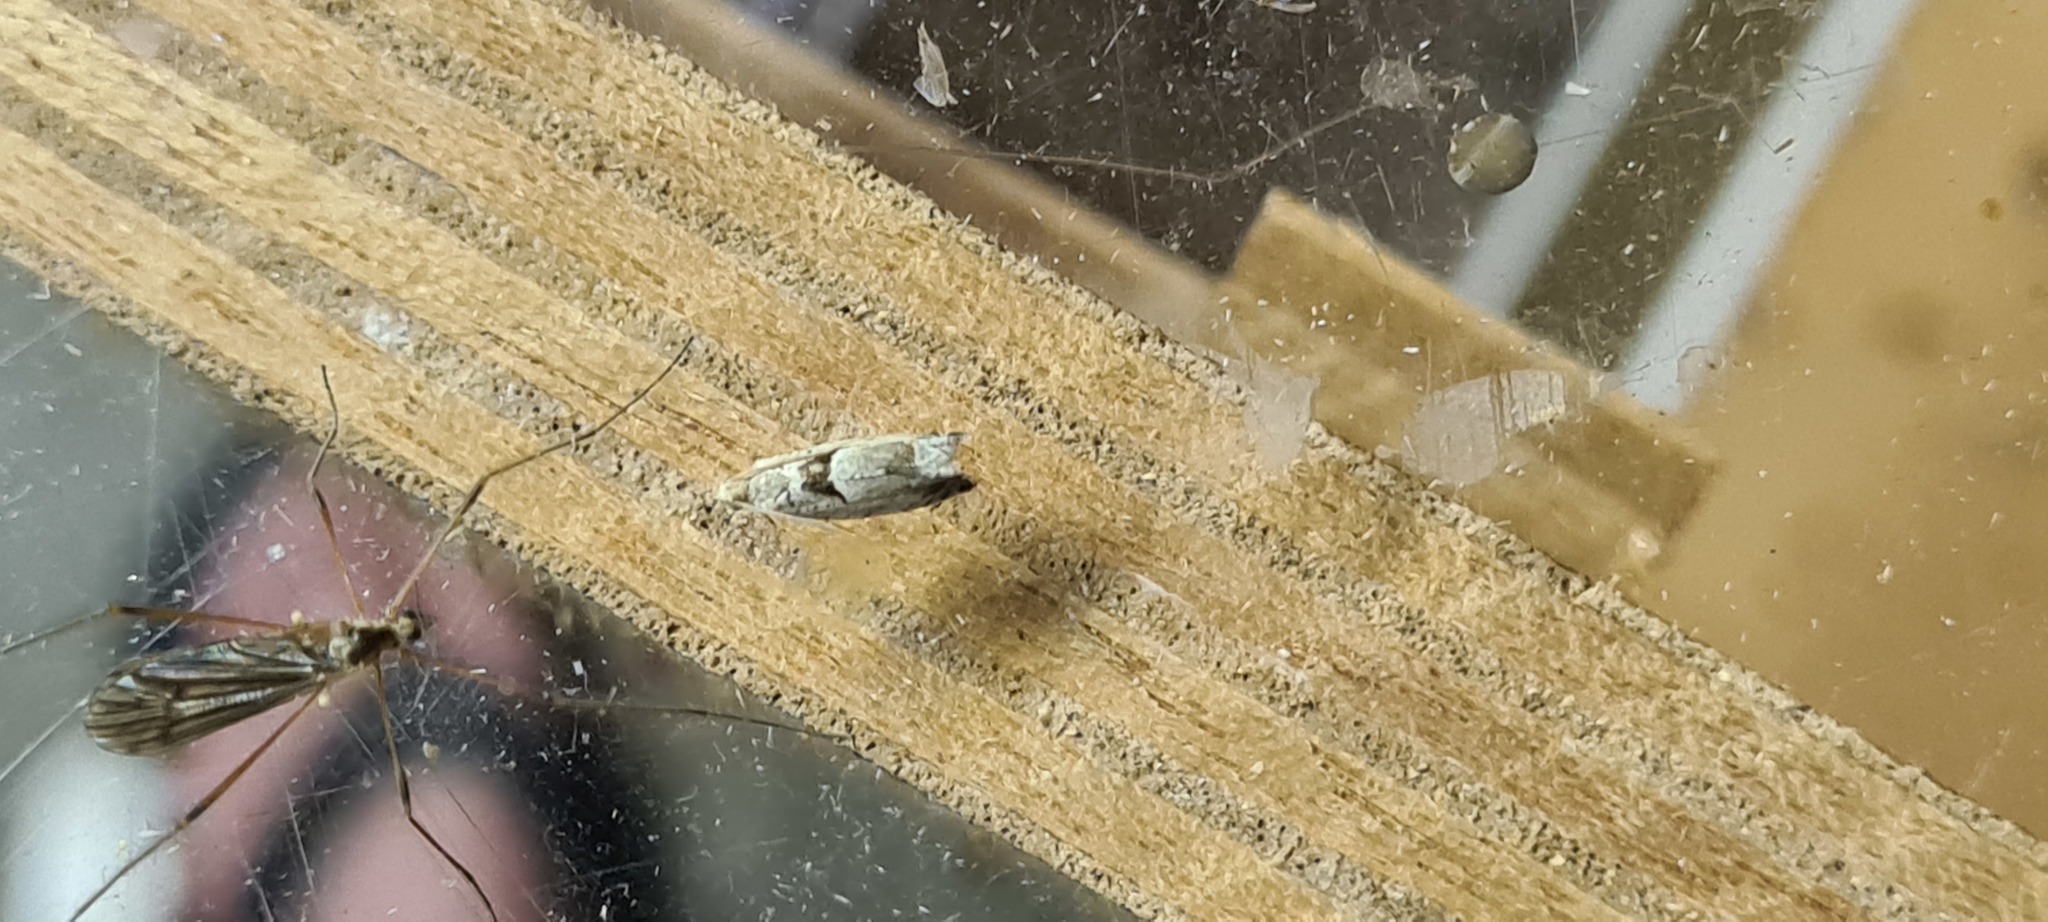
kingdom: Animalia
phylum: Arthropoda
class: Insecta
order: Lepidoptera
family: Tortricidae
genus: Epinotia
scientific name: Epinotia ramella
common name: Small birch bell
